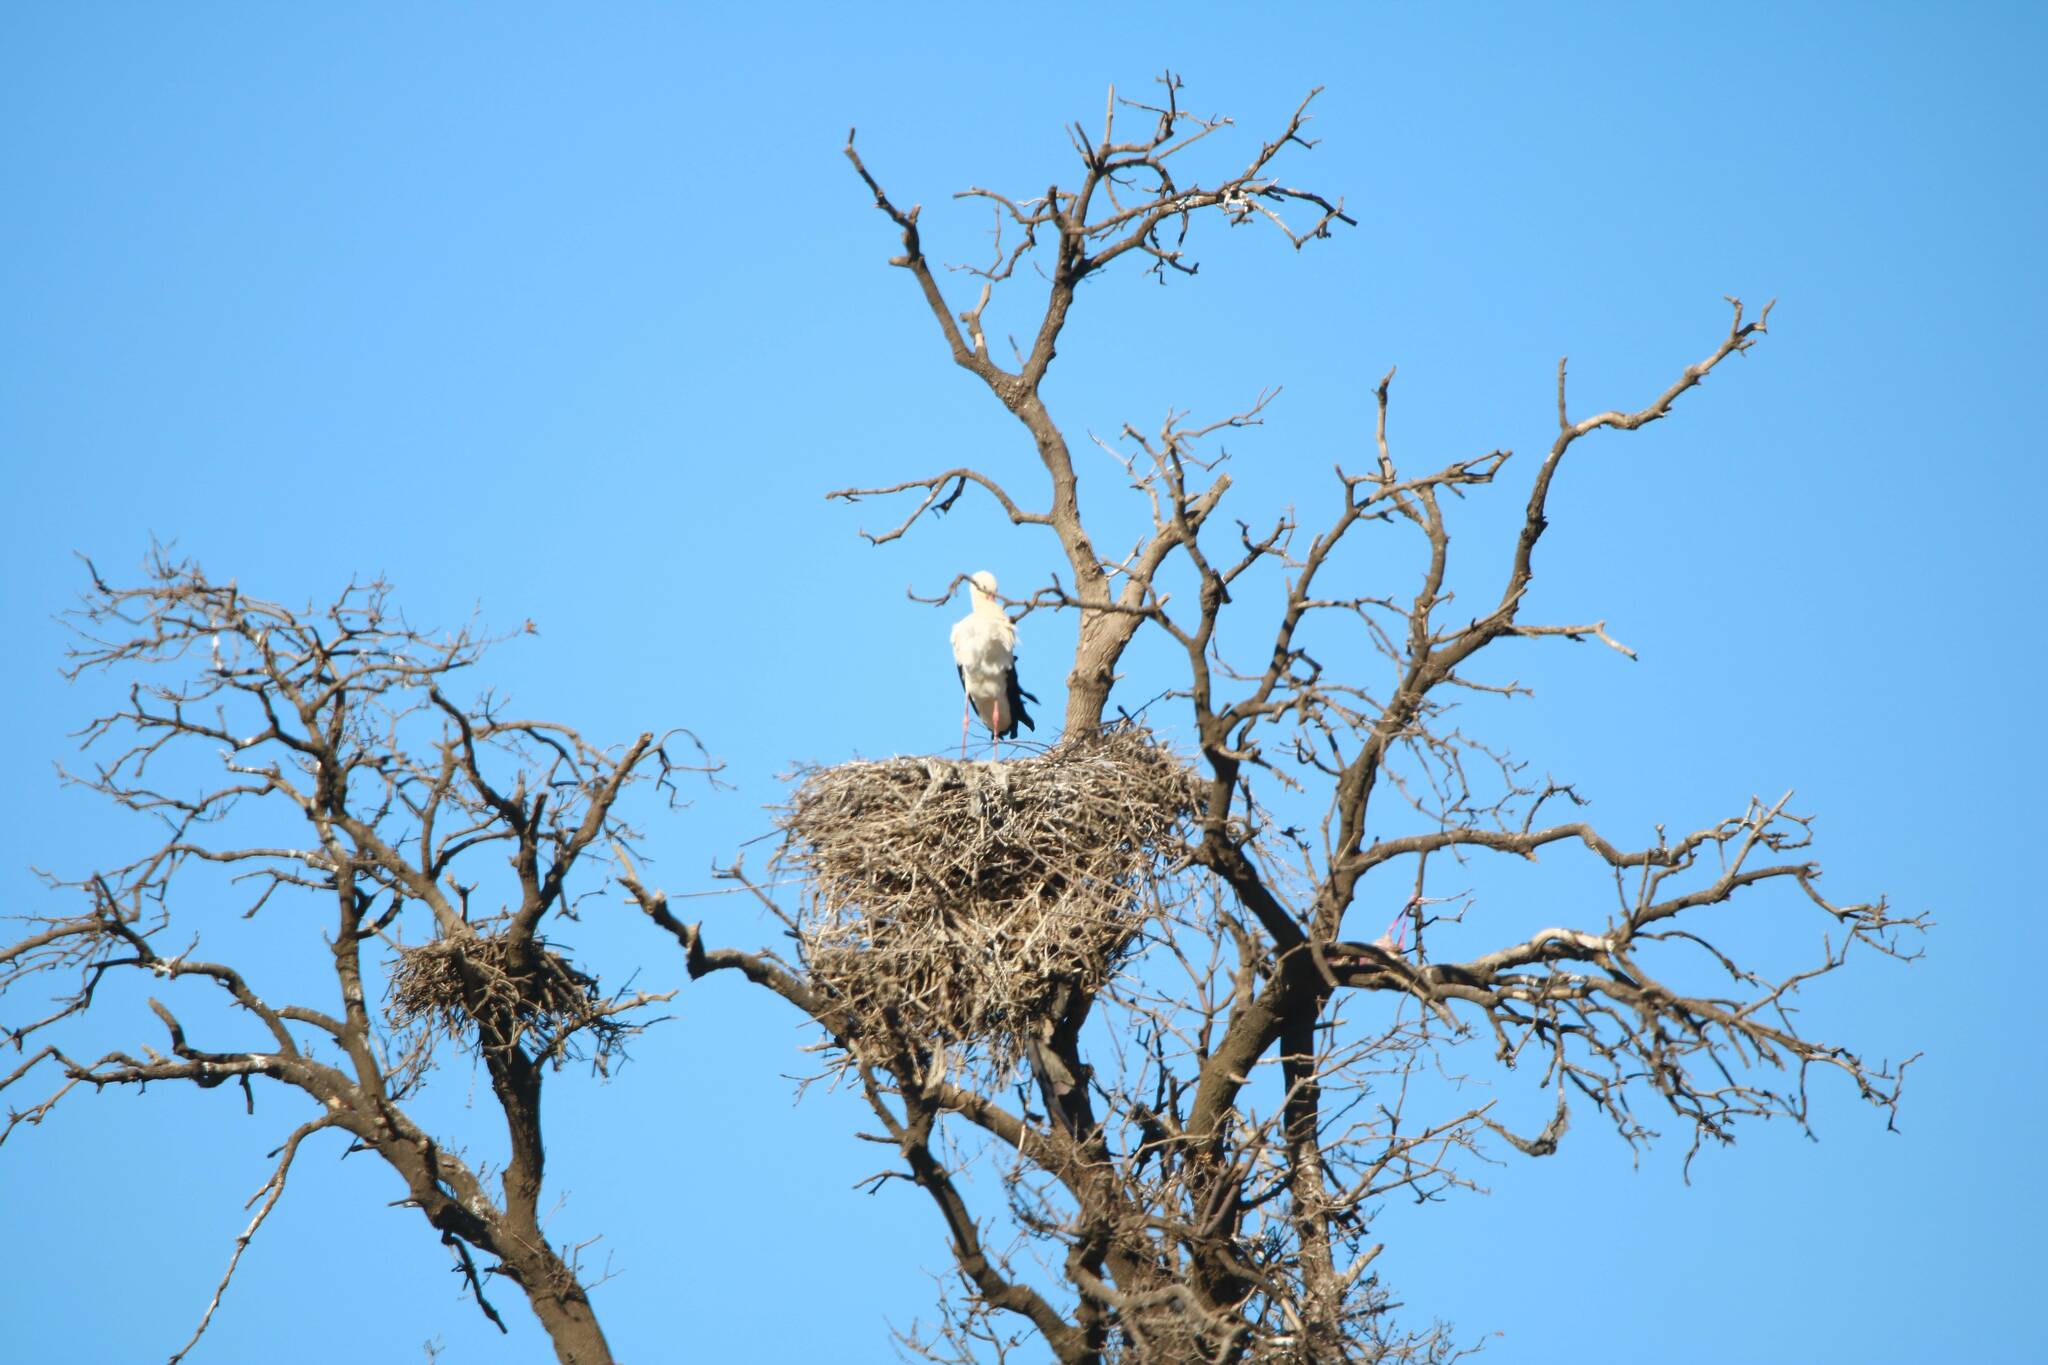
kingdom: Animalia
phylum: Chordata
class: Aves
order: Ciconiiformes
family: Ciconiidae
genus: Ciconia
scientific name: Ciconia ciconia
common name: White stork
